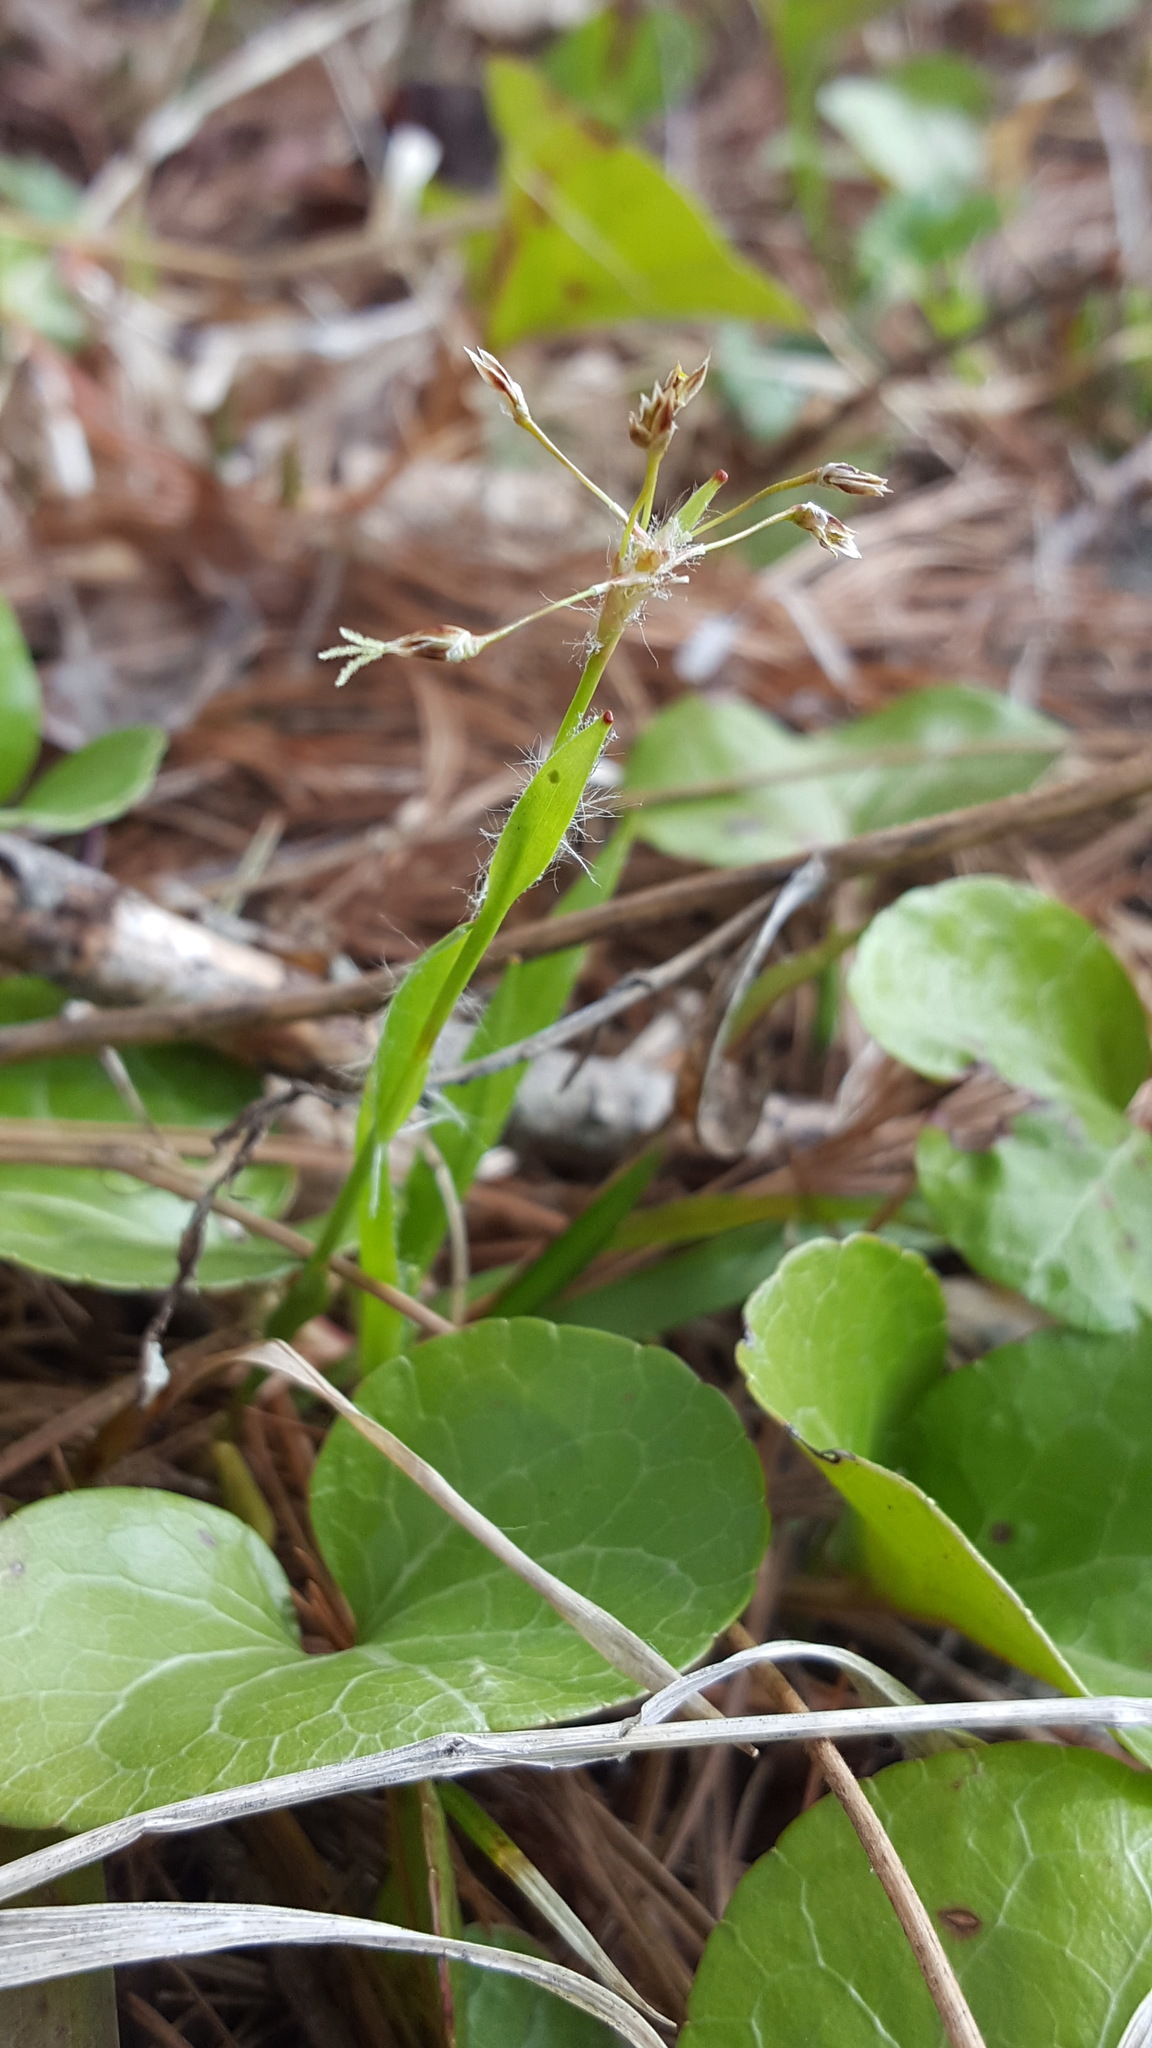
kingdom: Plantae
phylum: Tracheophyta
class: Liliopsida
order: Poales
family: Juncaceae
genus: Luzula
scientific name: Luzula acuminata
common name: Hairy woodrush
